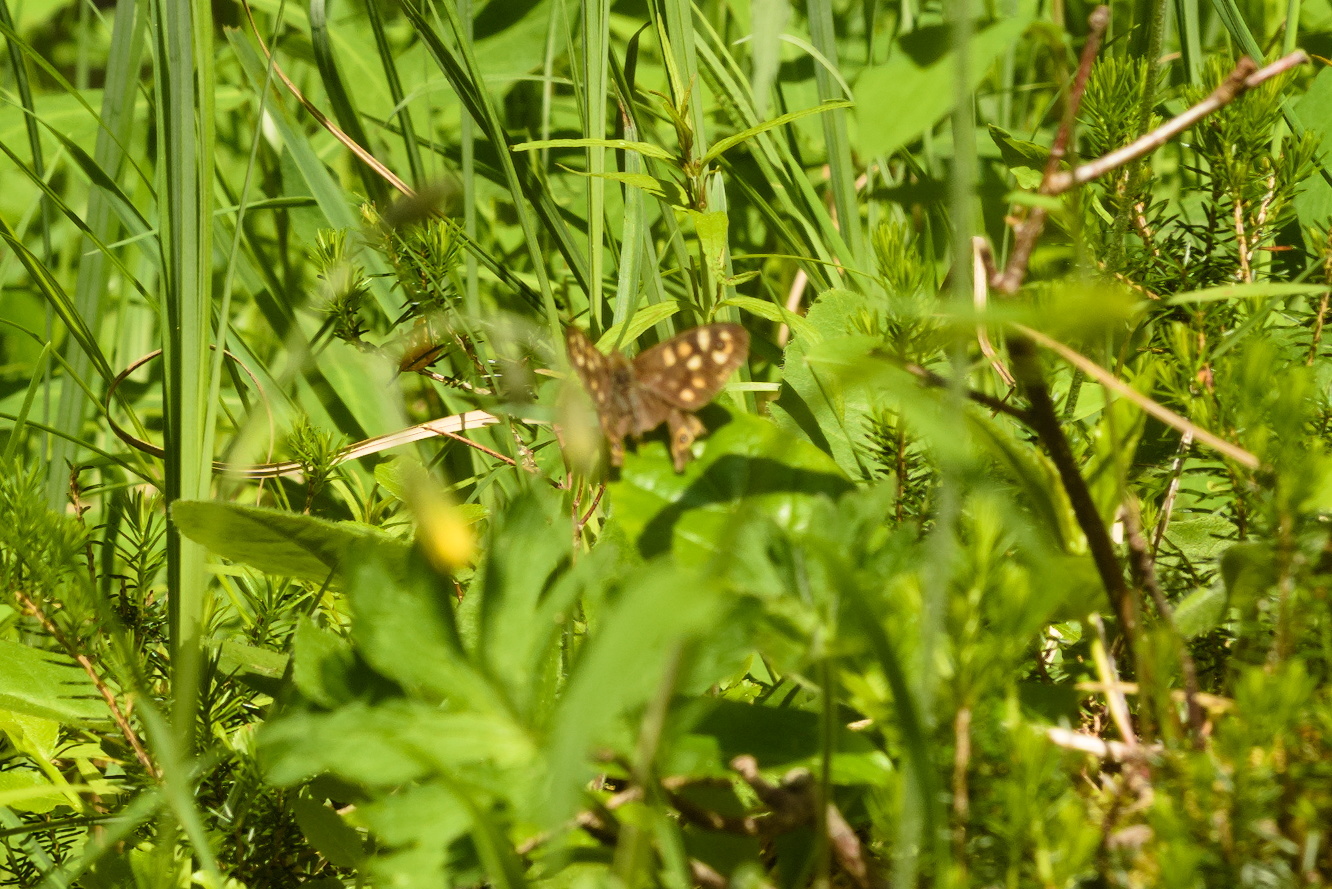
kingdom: Animalia
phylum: Arthropoda
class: Insecta
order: Lepidoptera
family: Nymphalidae
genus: Pararge
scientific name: Pararge aegeria
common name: Speckled wood
